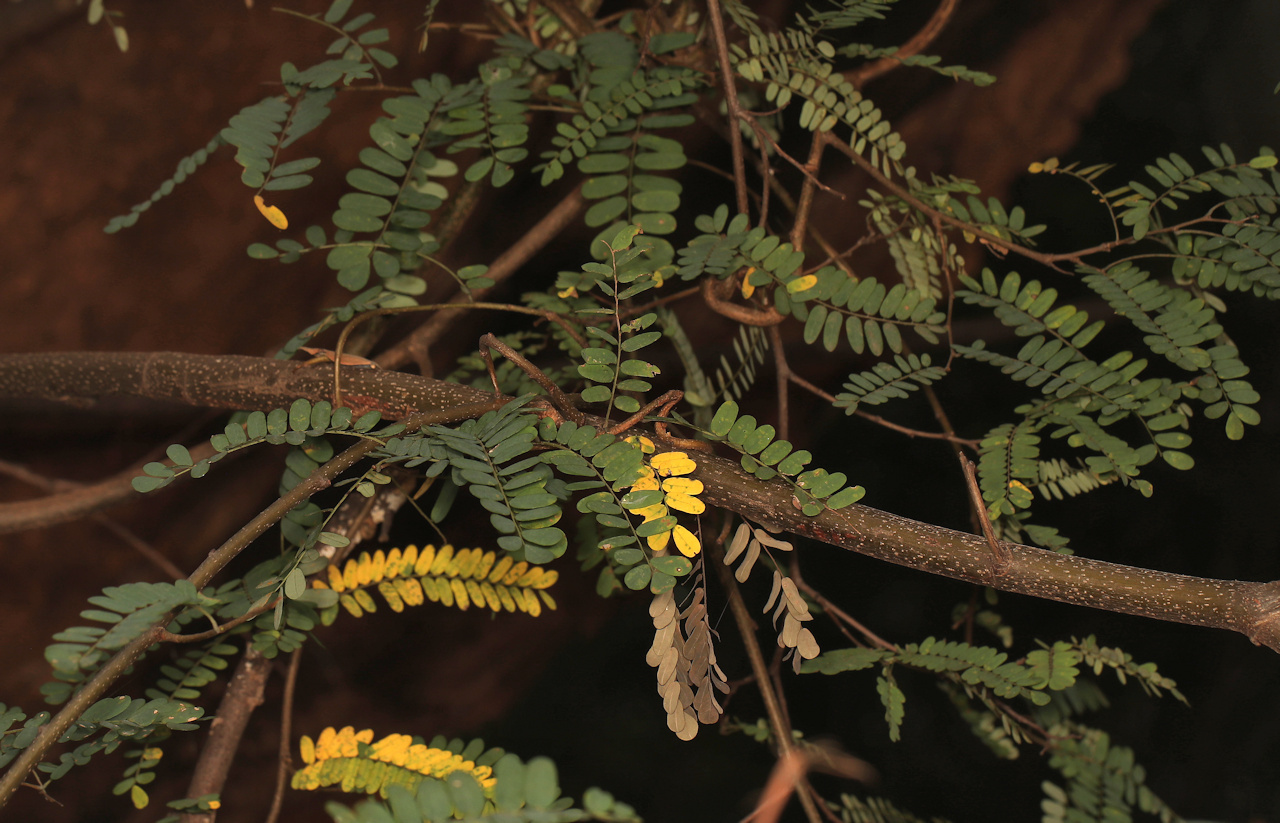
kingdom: Plantae
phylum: Tracheophyta
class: Magnoliopsida
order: Fabales
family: Fabaceae
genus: Dalbergia
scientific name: Dalbergia armata
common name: Hluhluwe climber
